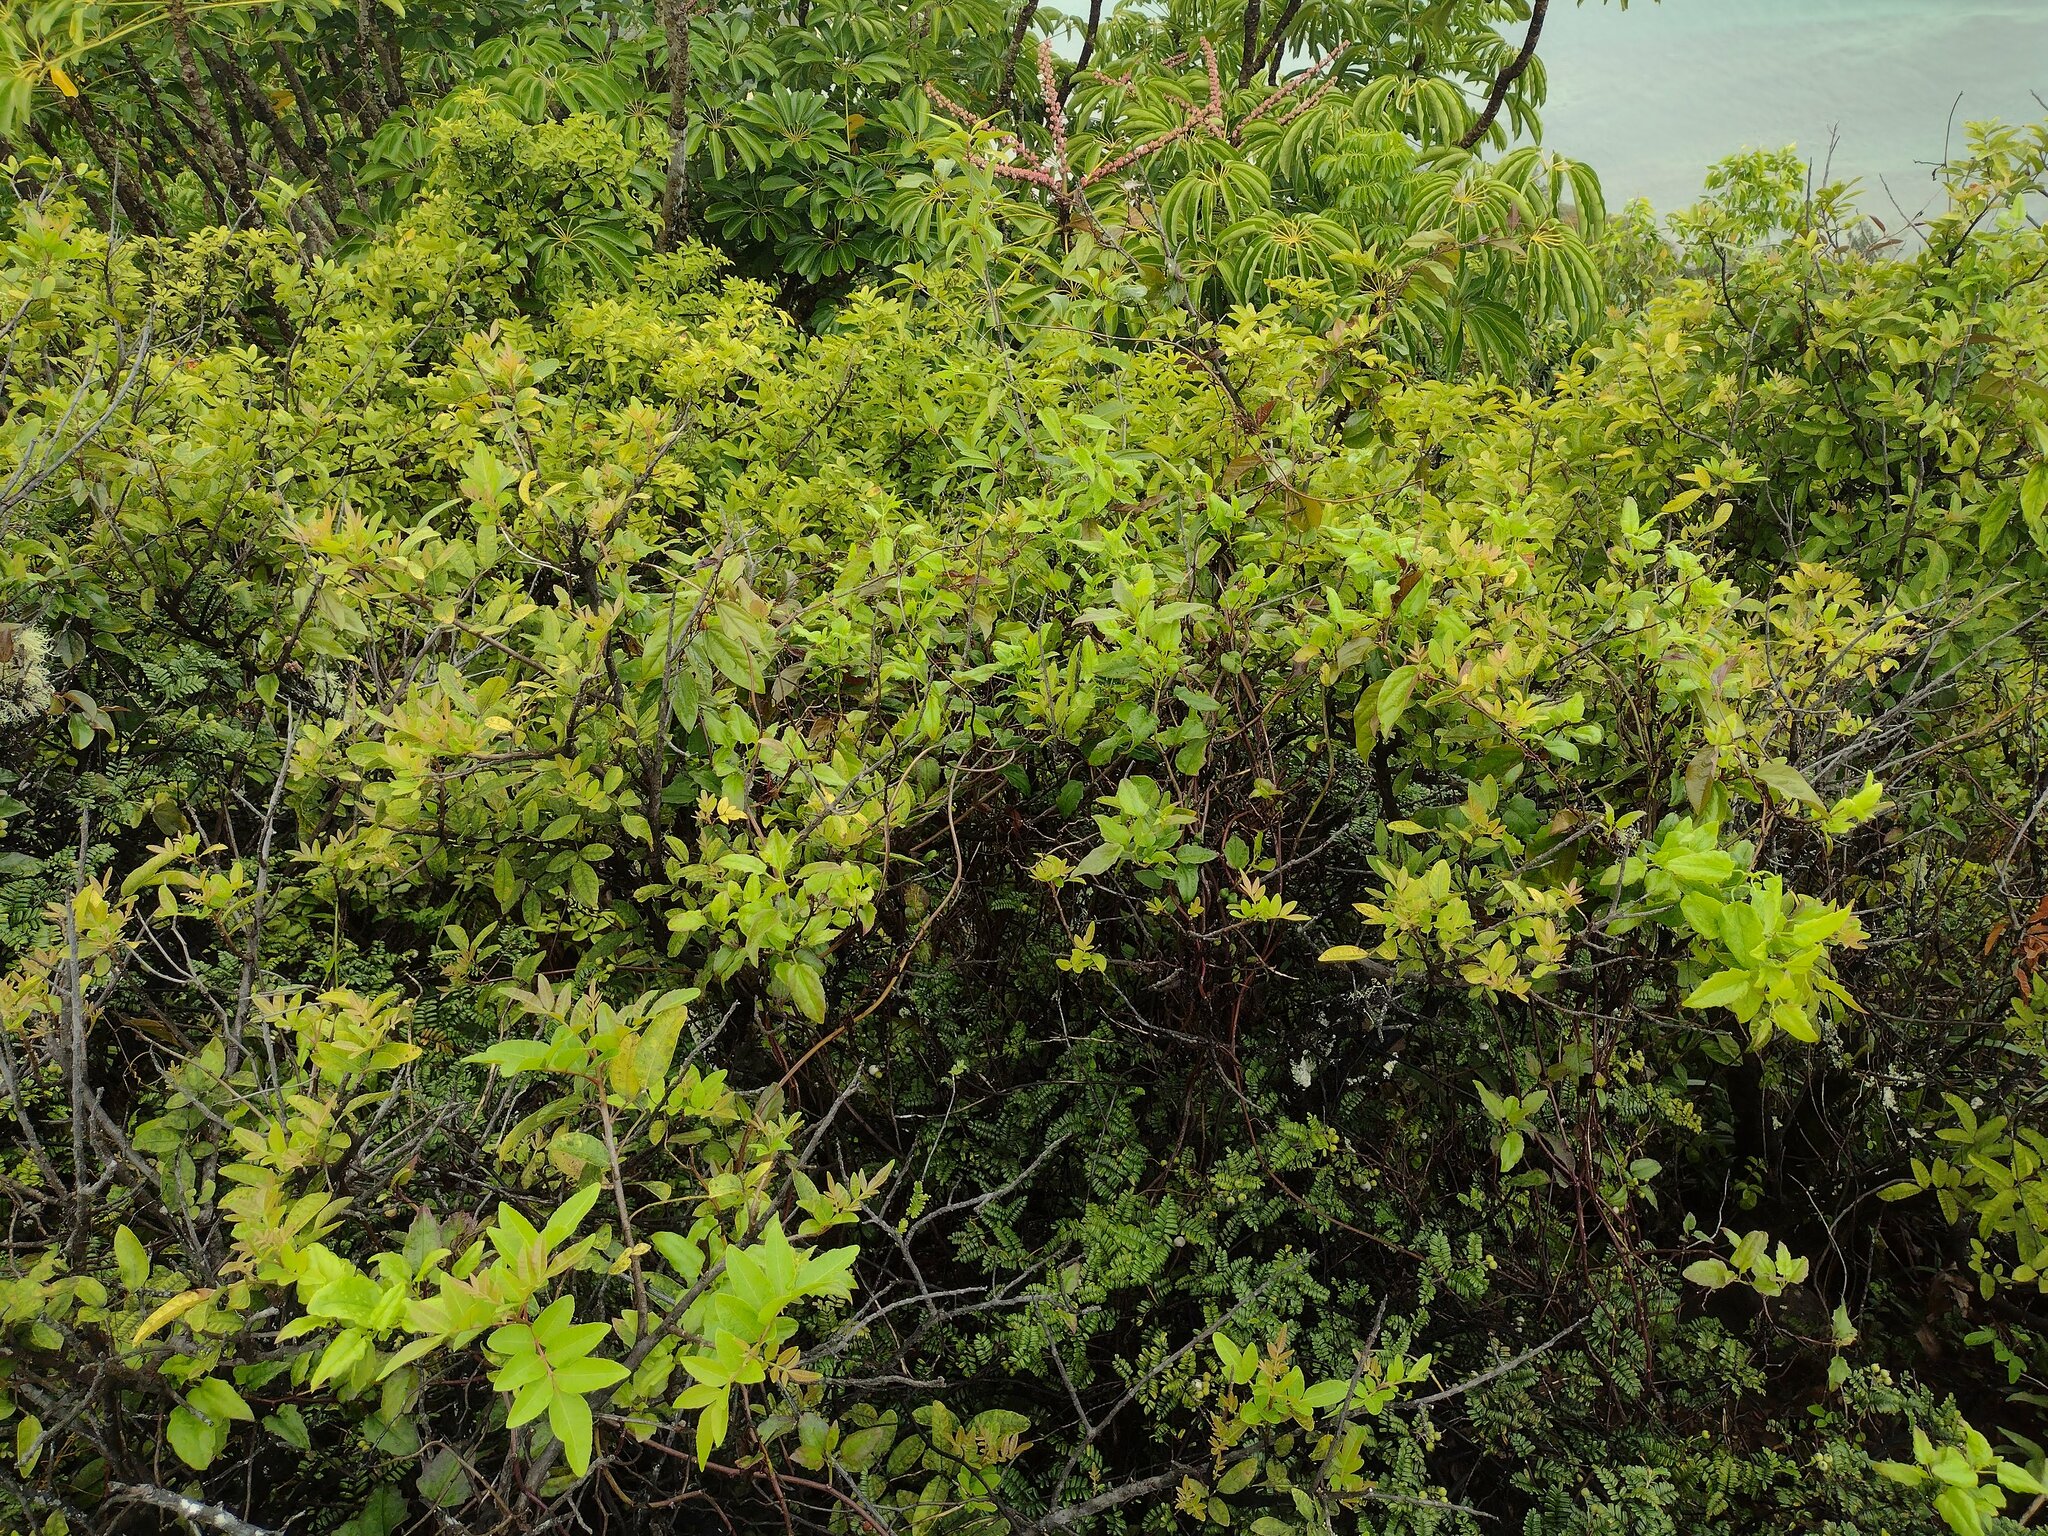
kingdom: Plantae
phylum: Tracheophyta
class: Magnoliopsida
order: Asterales
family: Asteraceae
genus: Pseudogynoxys
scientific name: Pseudogynoxys chenopodioides
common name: Mexican flamevine
